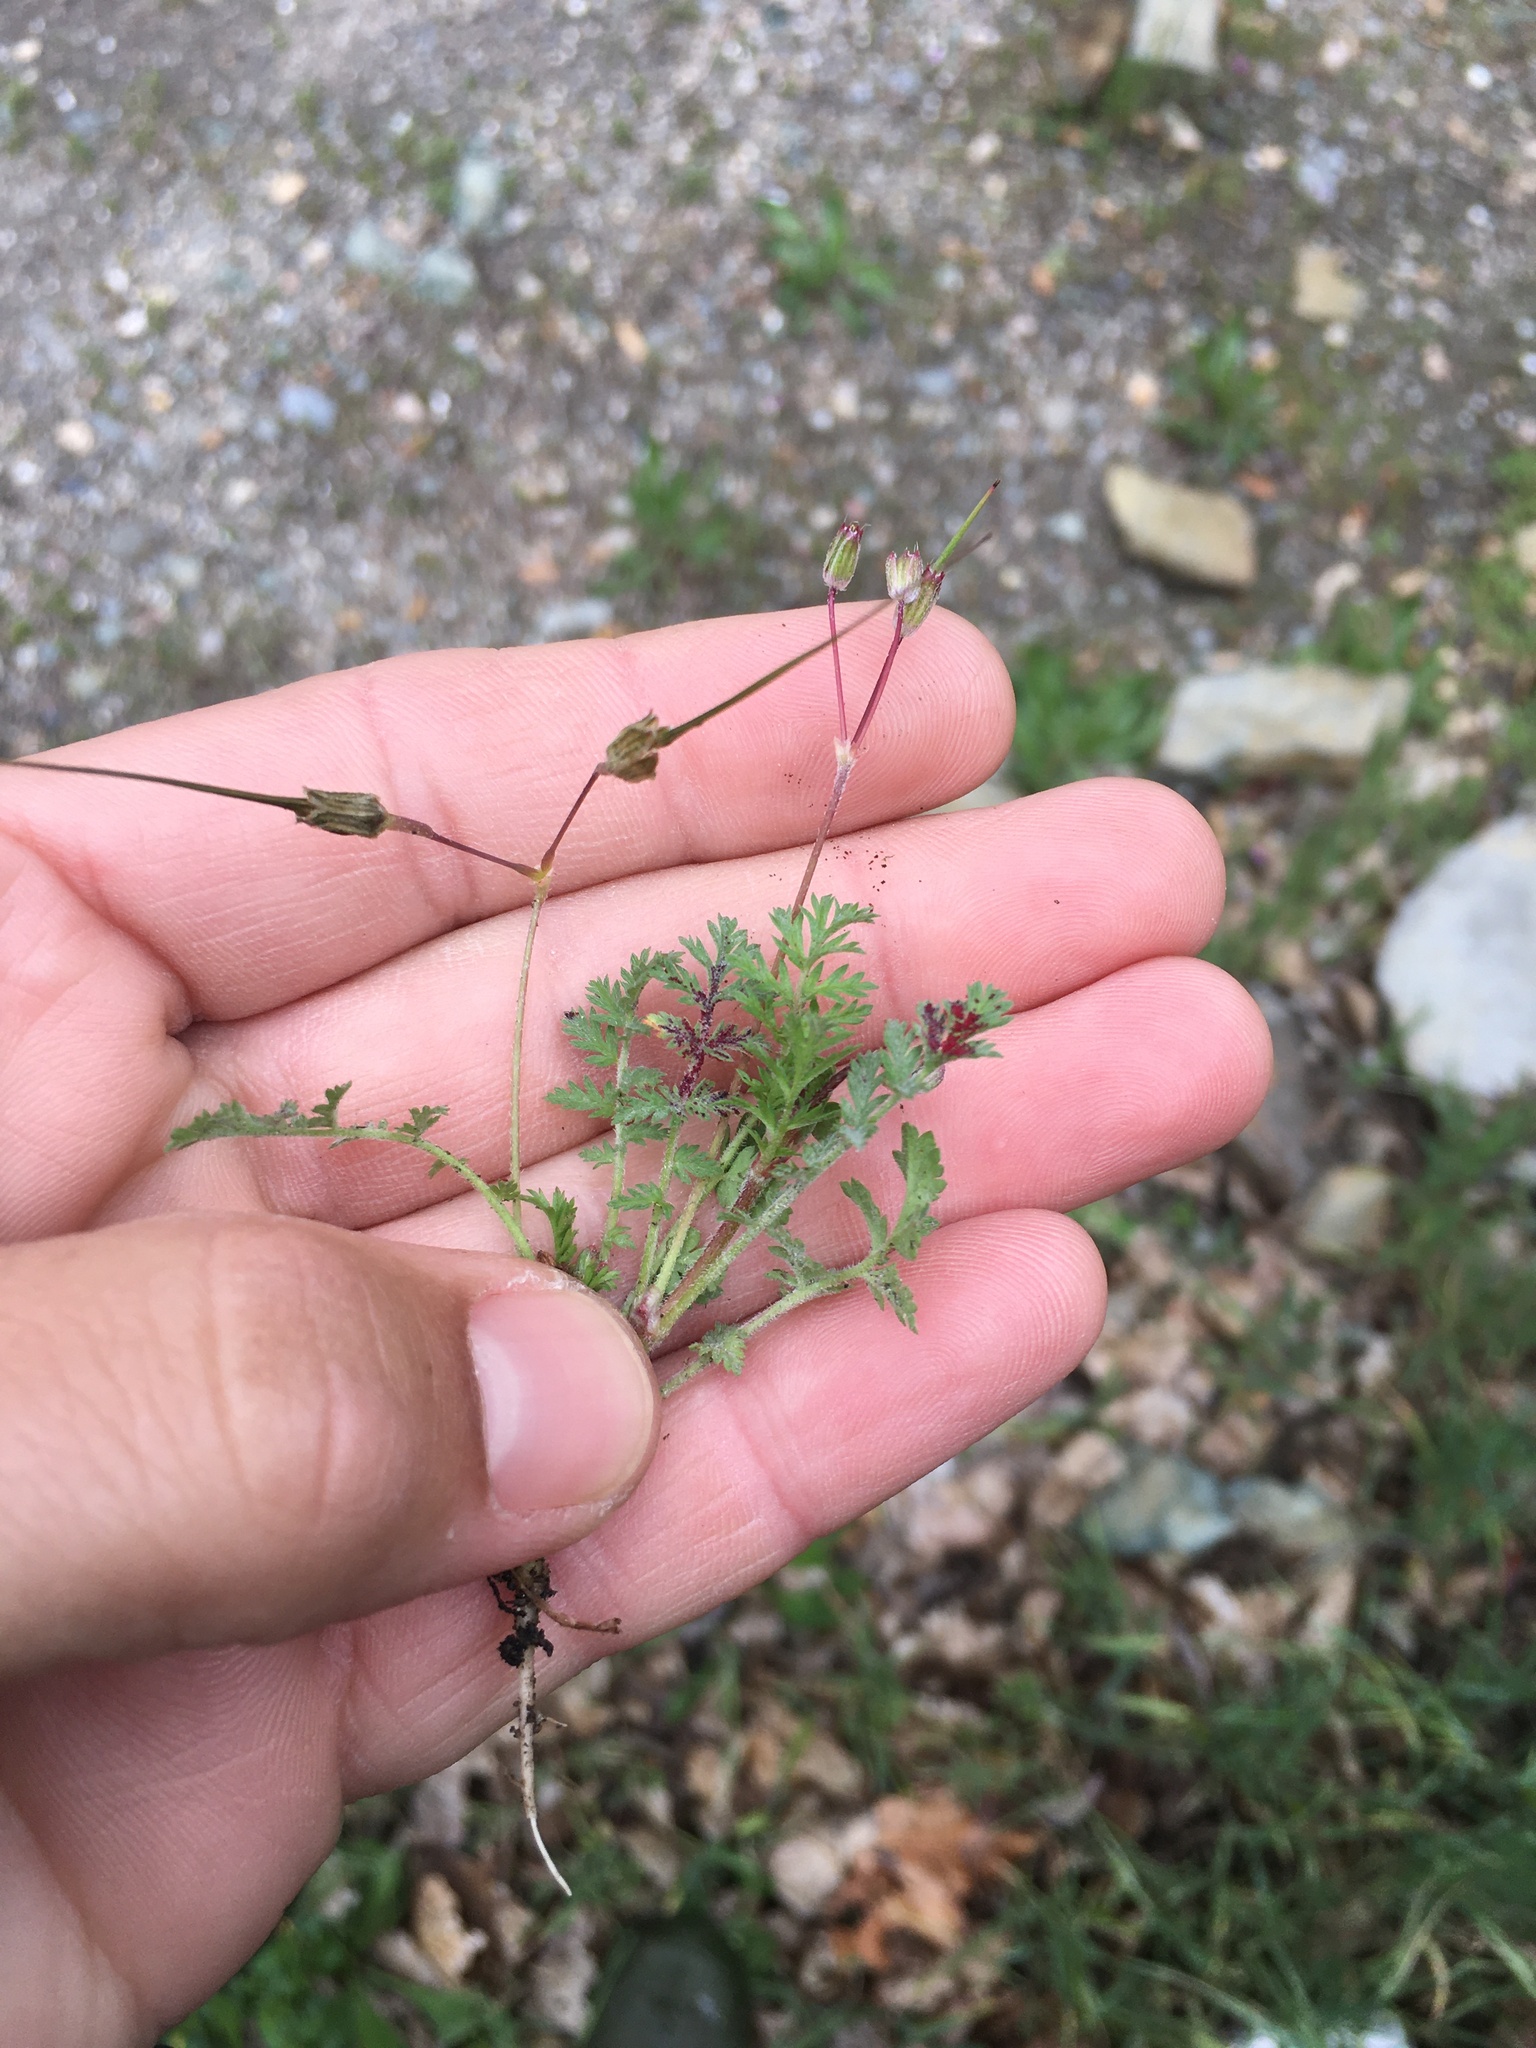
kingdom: Fungi
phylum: Chytridiomycota
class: Chytridiomycetes
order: Chytridiales
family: Synchytriaceae
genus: Synchytrium
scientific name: Synchytrium papillatum
